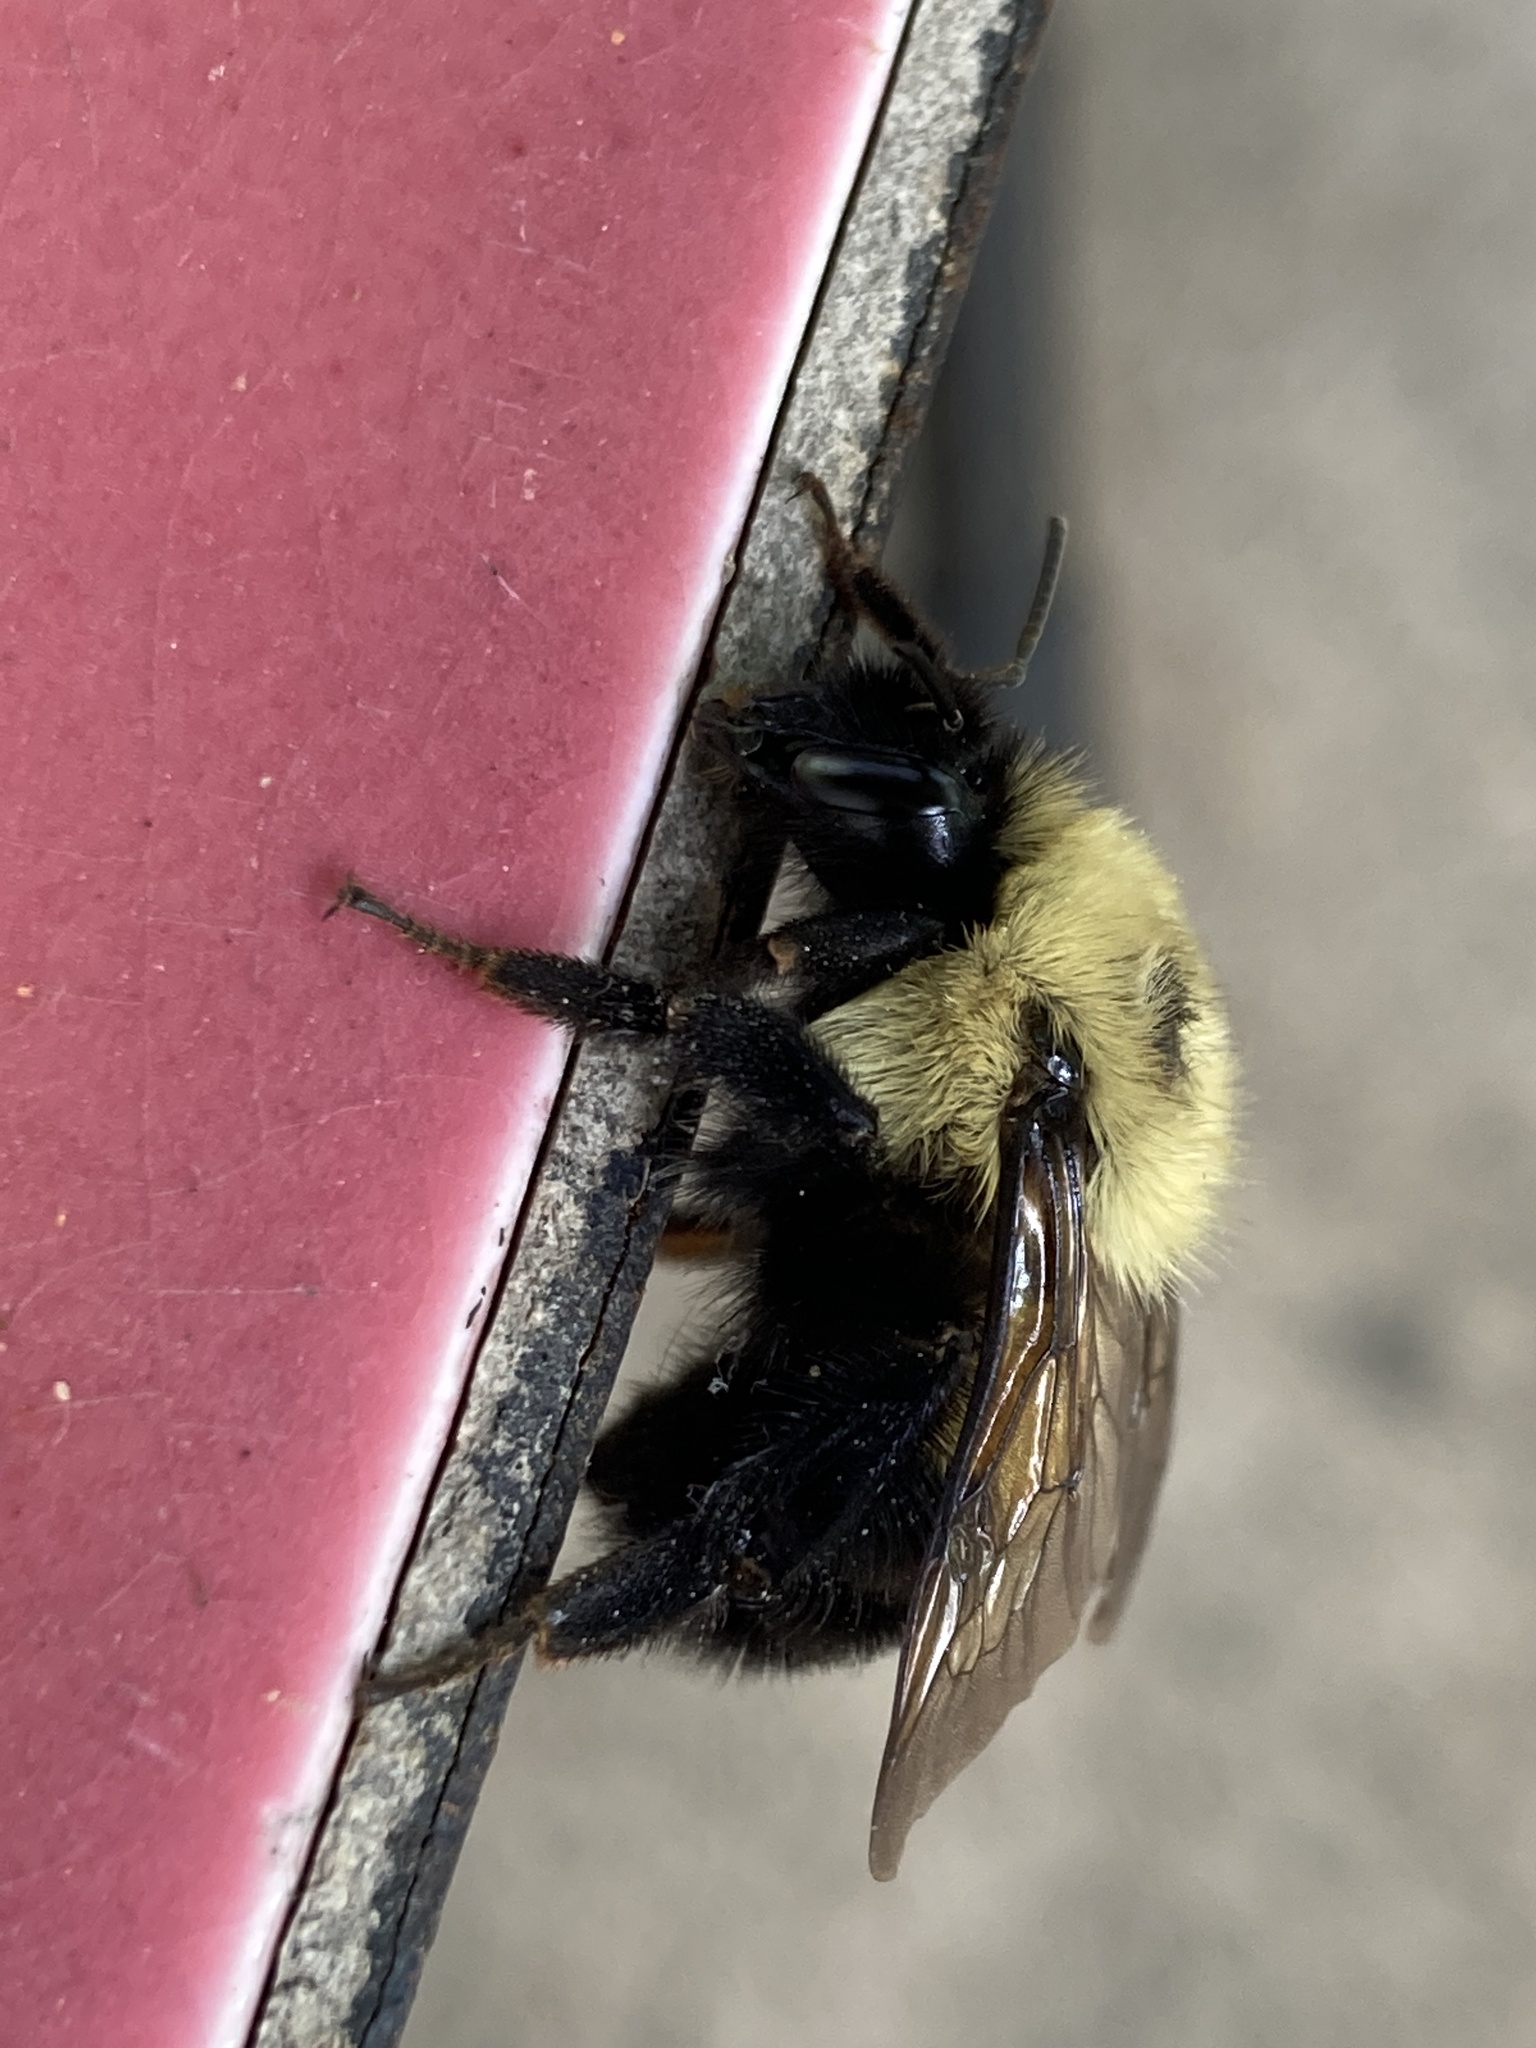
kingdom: Animalia
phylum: Arthropoda
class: Insecta
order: Hymenoptera
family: Apidae
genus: Bombus
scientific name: Bombus bimaculatus
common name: Two-spotted bumble bee
